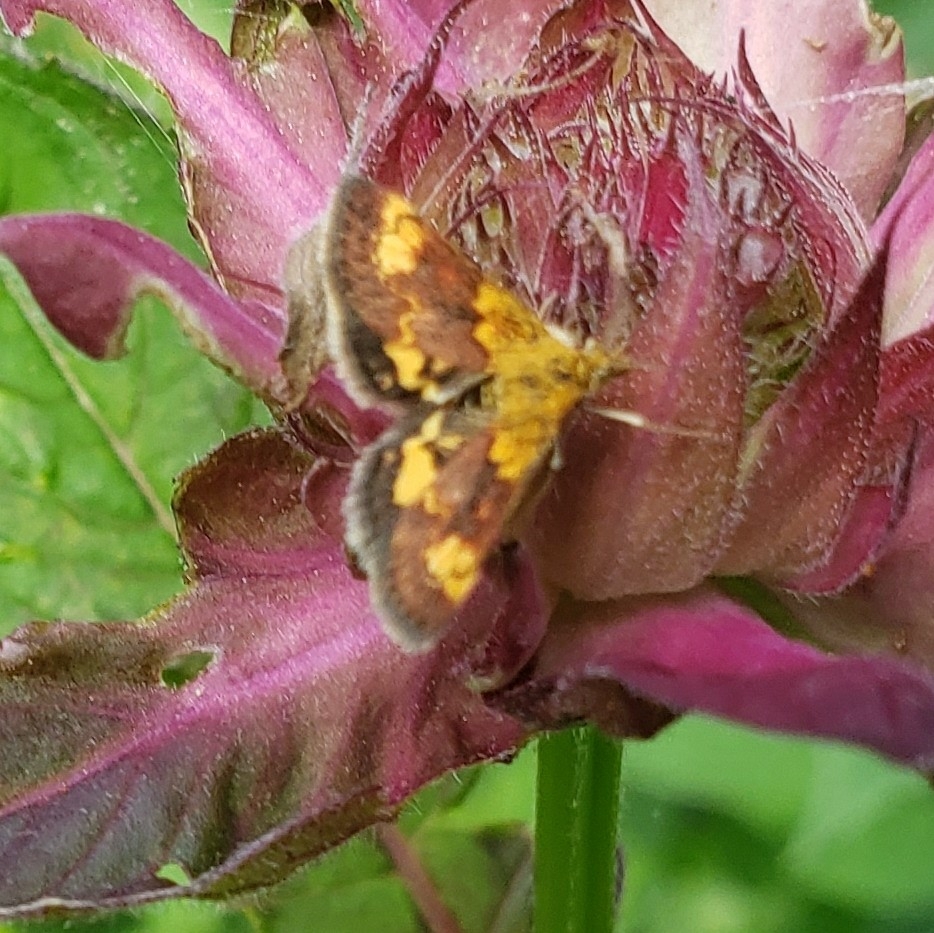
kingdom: Animalia
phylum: Arthropoda
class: Insecta
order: Lepidoptera
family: Crambidae
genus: Pyrausta
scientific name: Pyrausta orphisalis
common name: Orange mint moth
